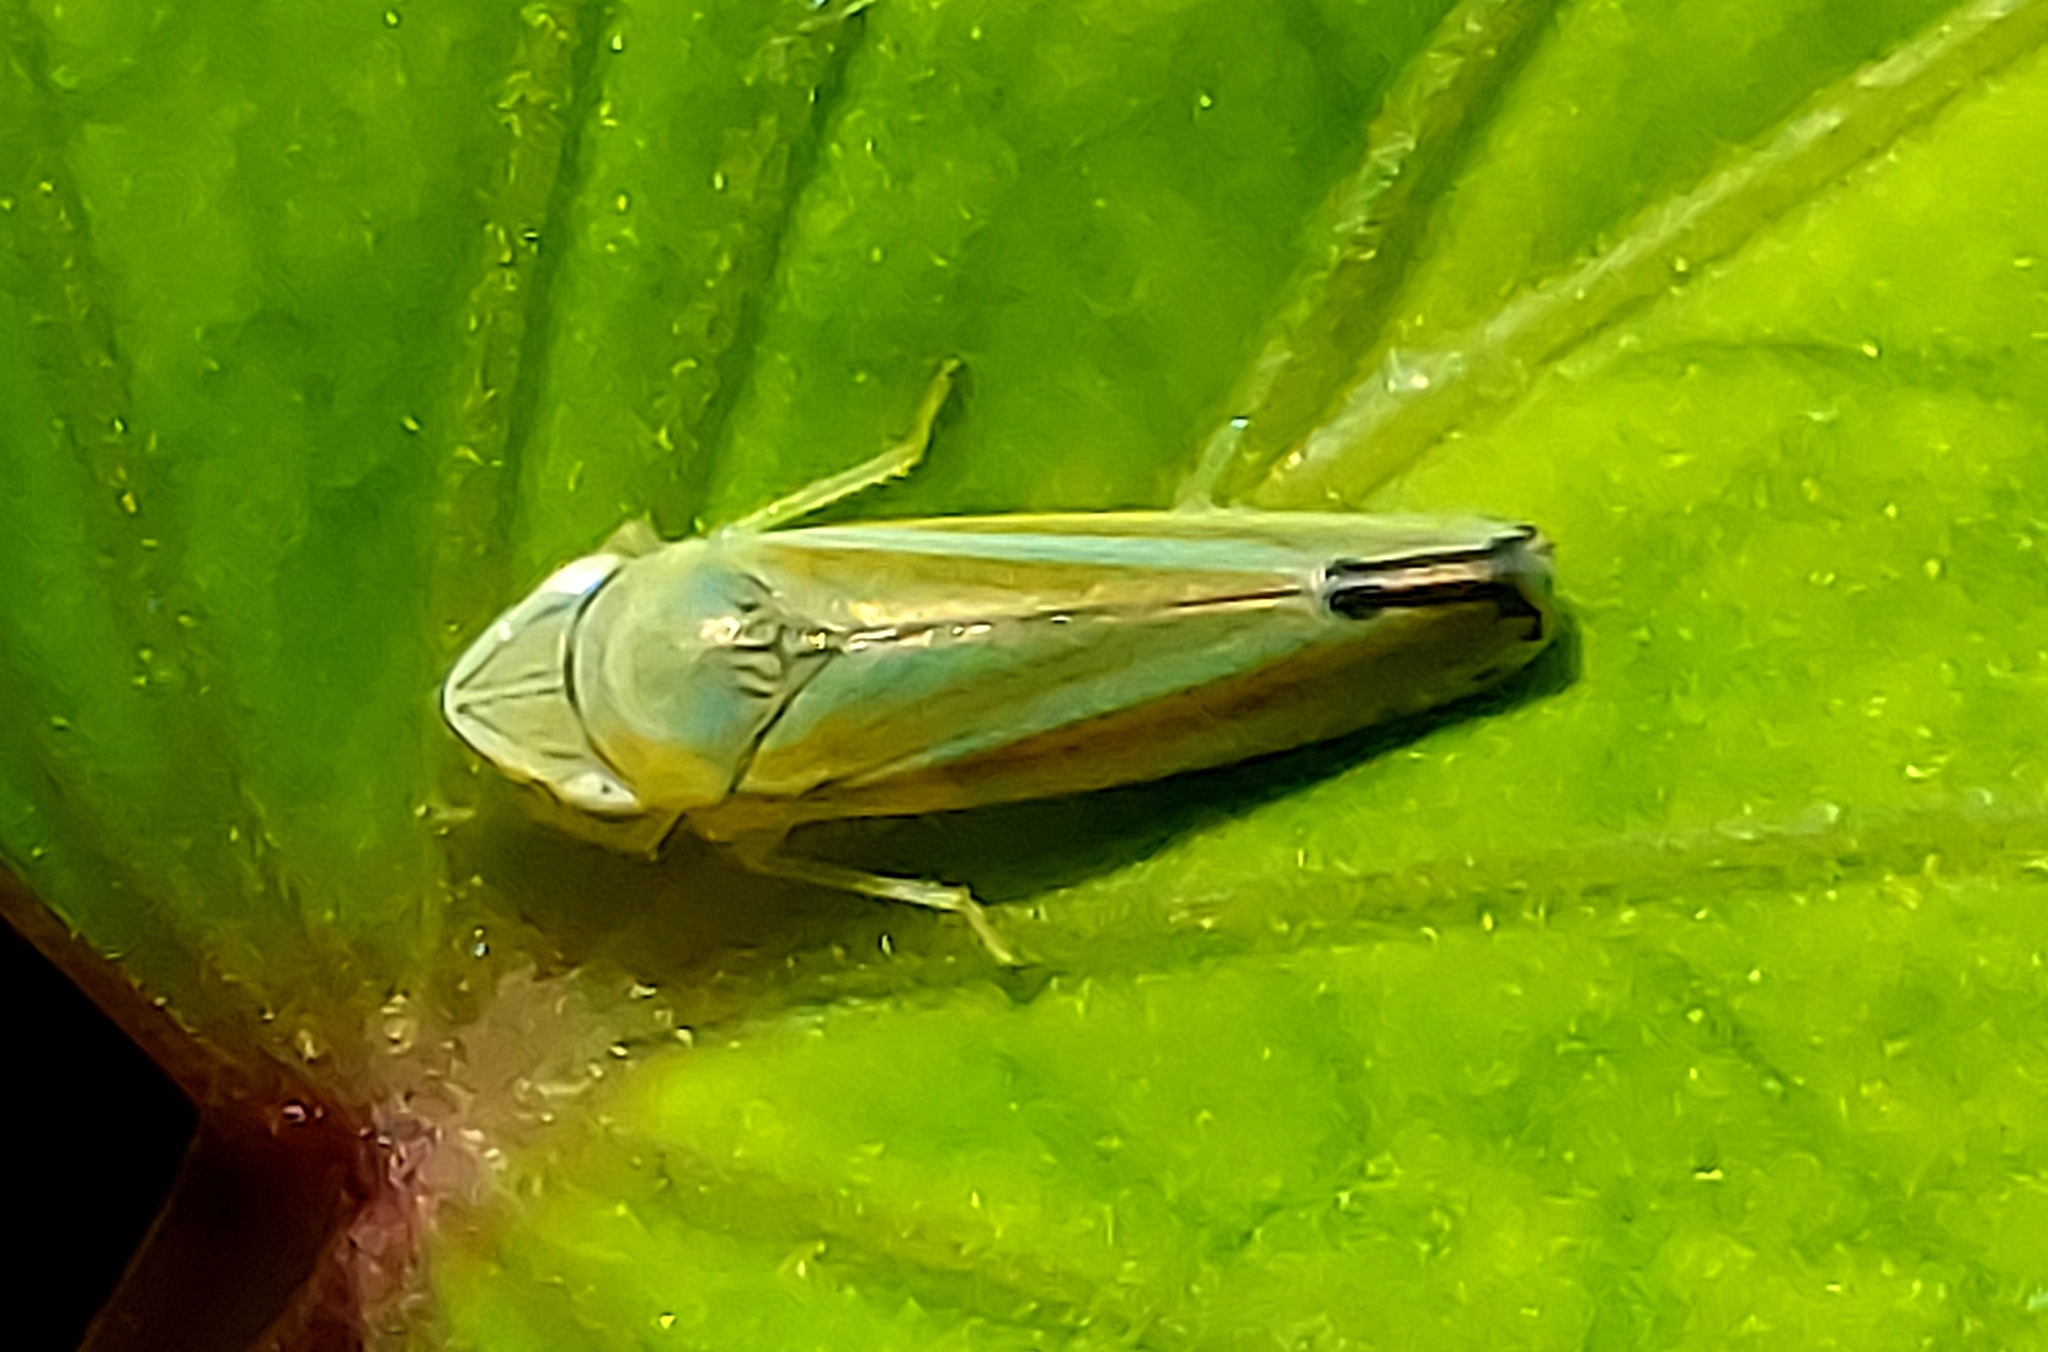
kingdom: Animalia
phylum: Arthropoda
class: Insecta
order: Hemiptera
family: Cicadellidae
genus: Graphocephala
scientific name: Graphocephala versuta
